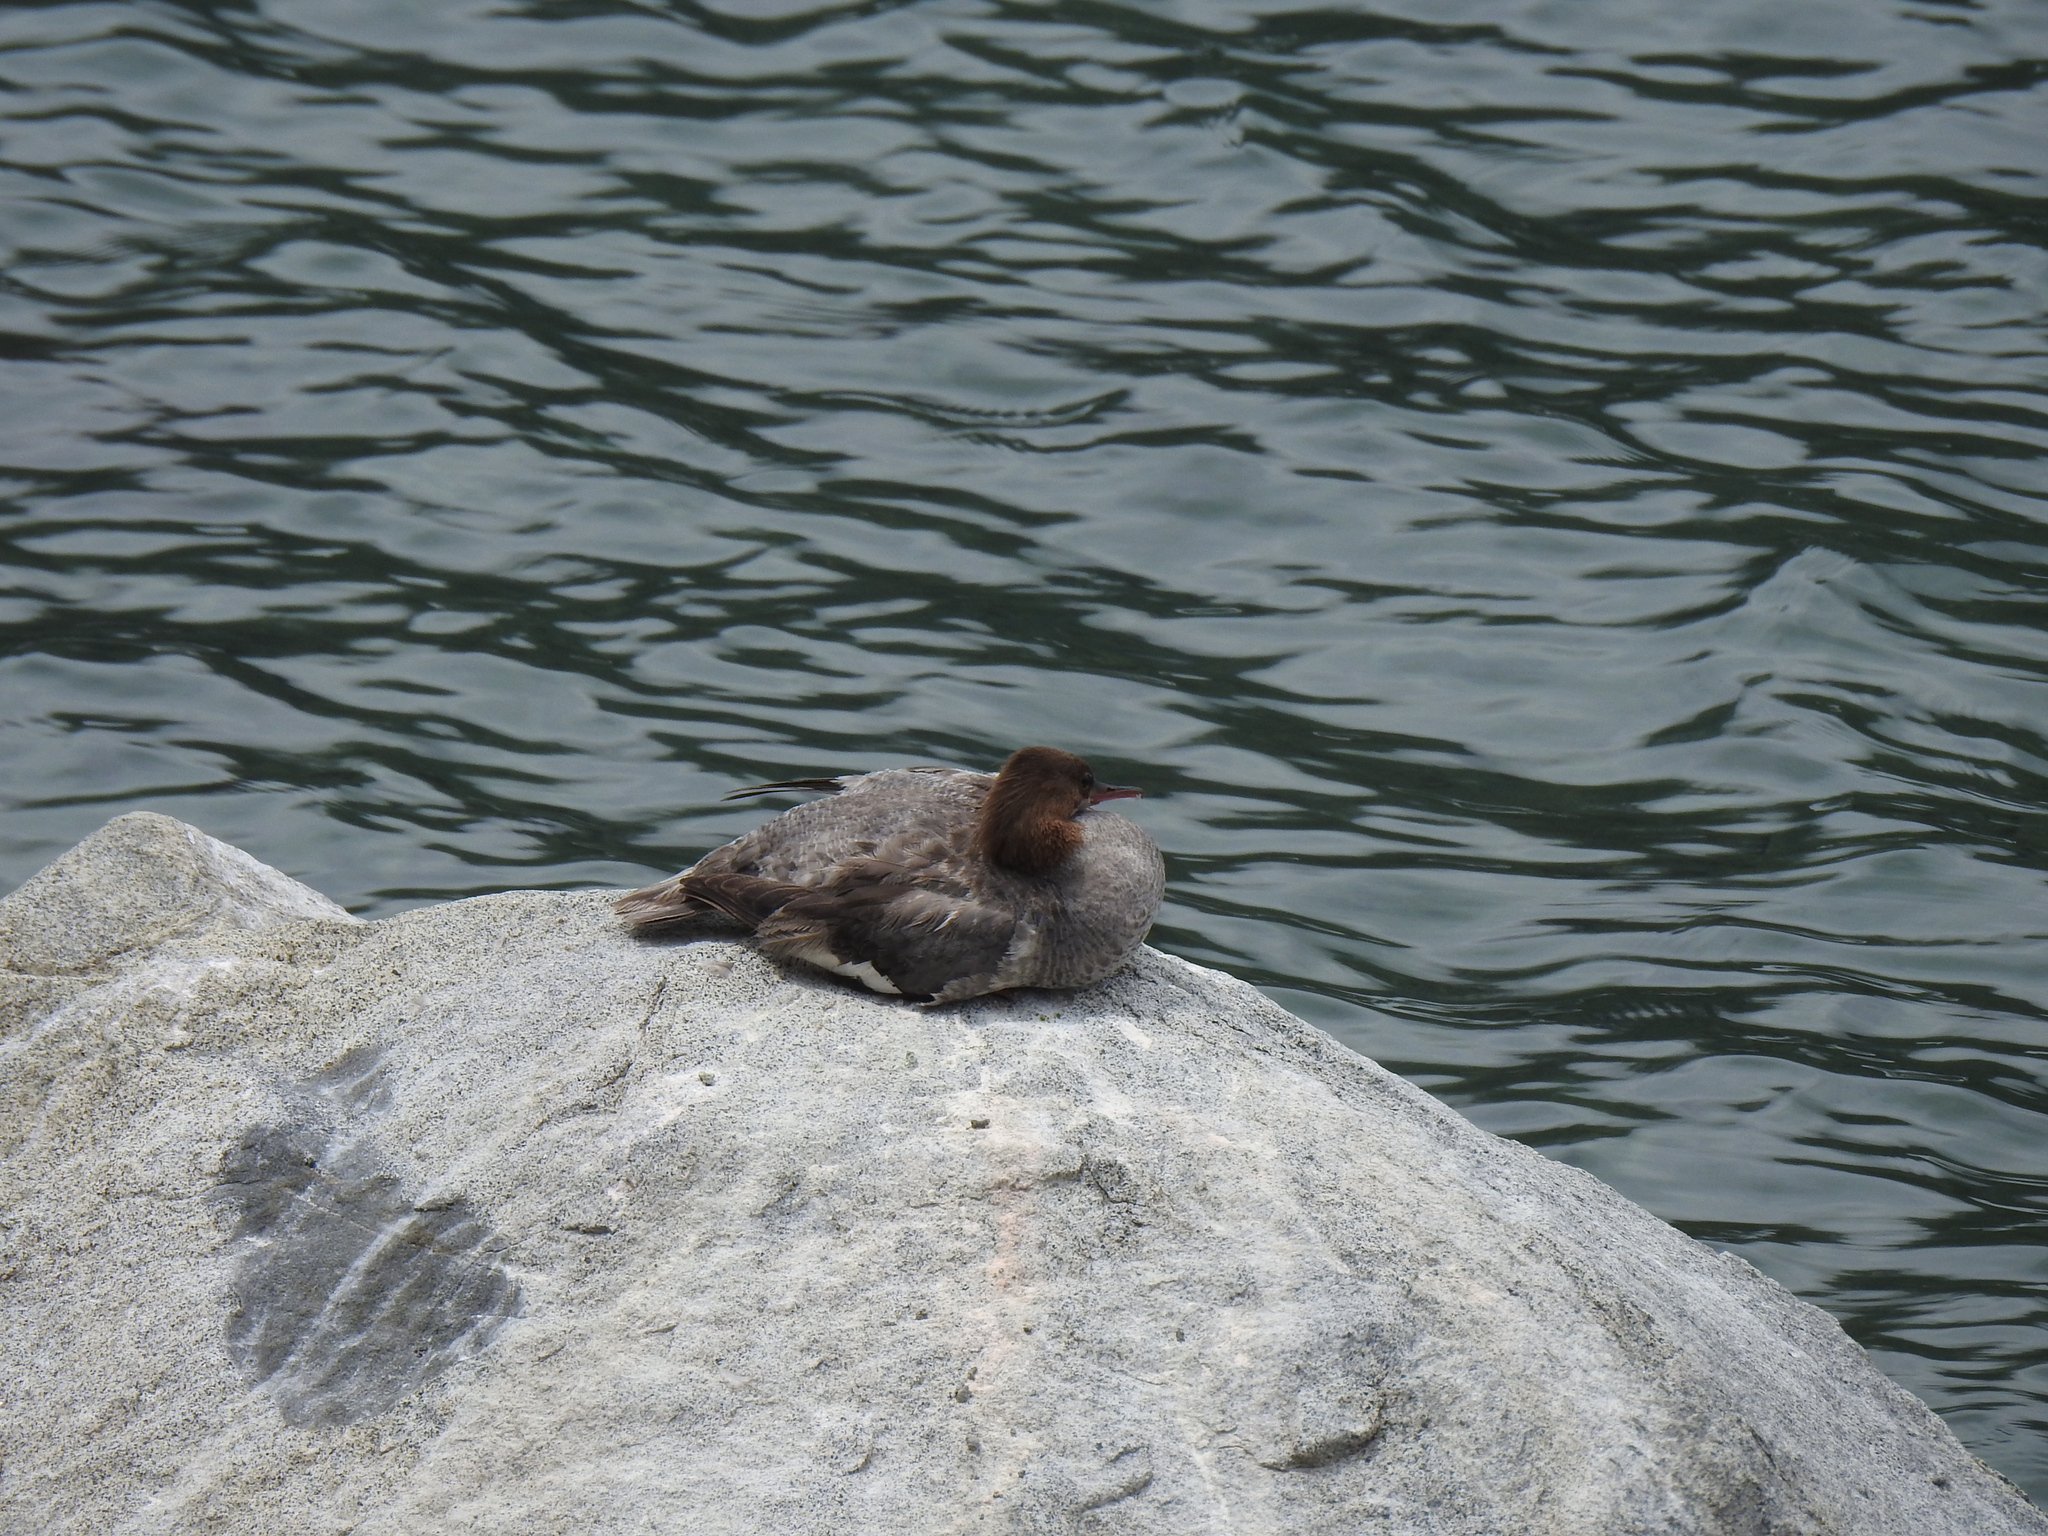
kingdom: Animalia
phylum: Chordata
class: Aves
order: Anseriformes
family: Anatidae
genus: Mergus
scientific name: Mergus merganser
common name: Common merganser
